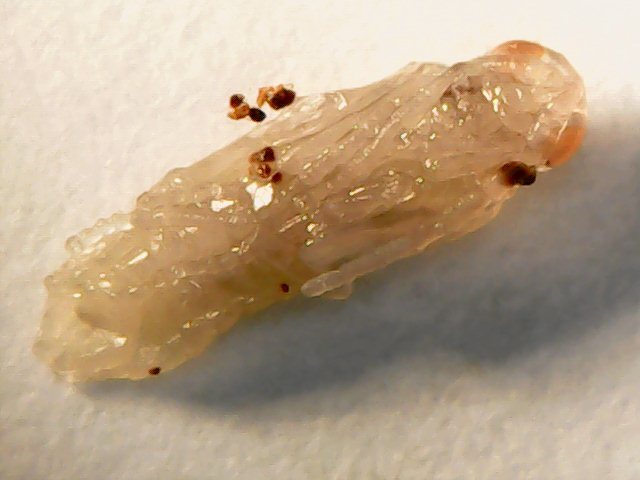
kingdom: Animalia
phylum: Arthropoda
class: Insecta
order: Diptera
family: Cecidomyiidae
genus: Rabdophaga
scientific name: Rabdophaga rosaria
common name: Willow rose gall midge
